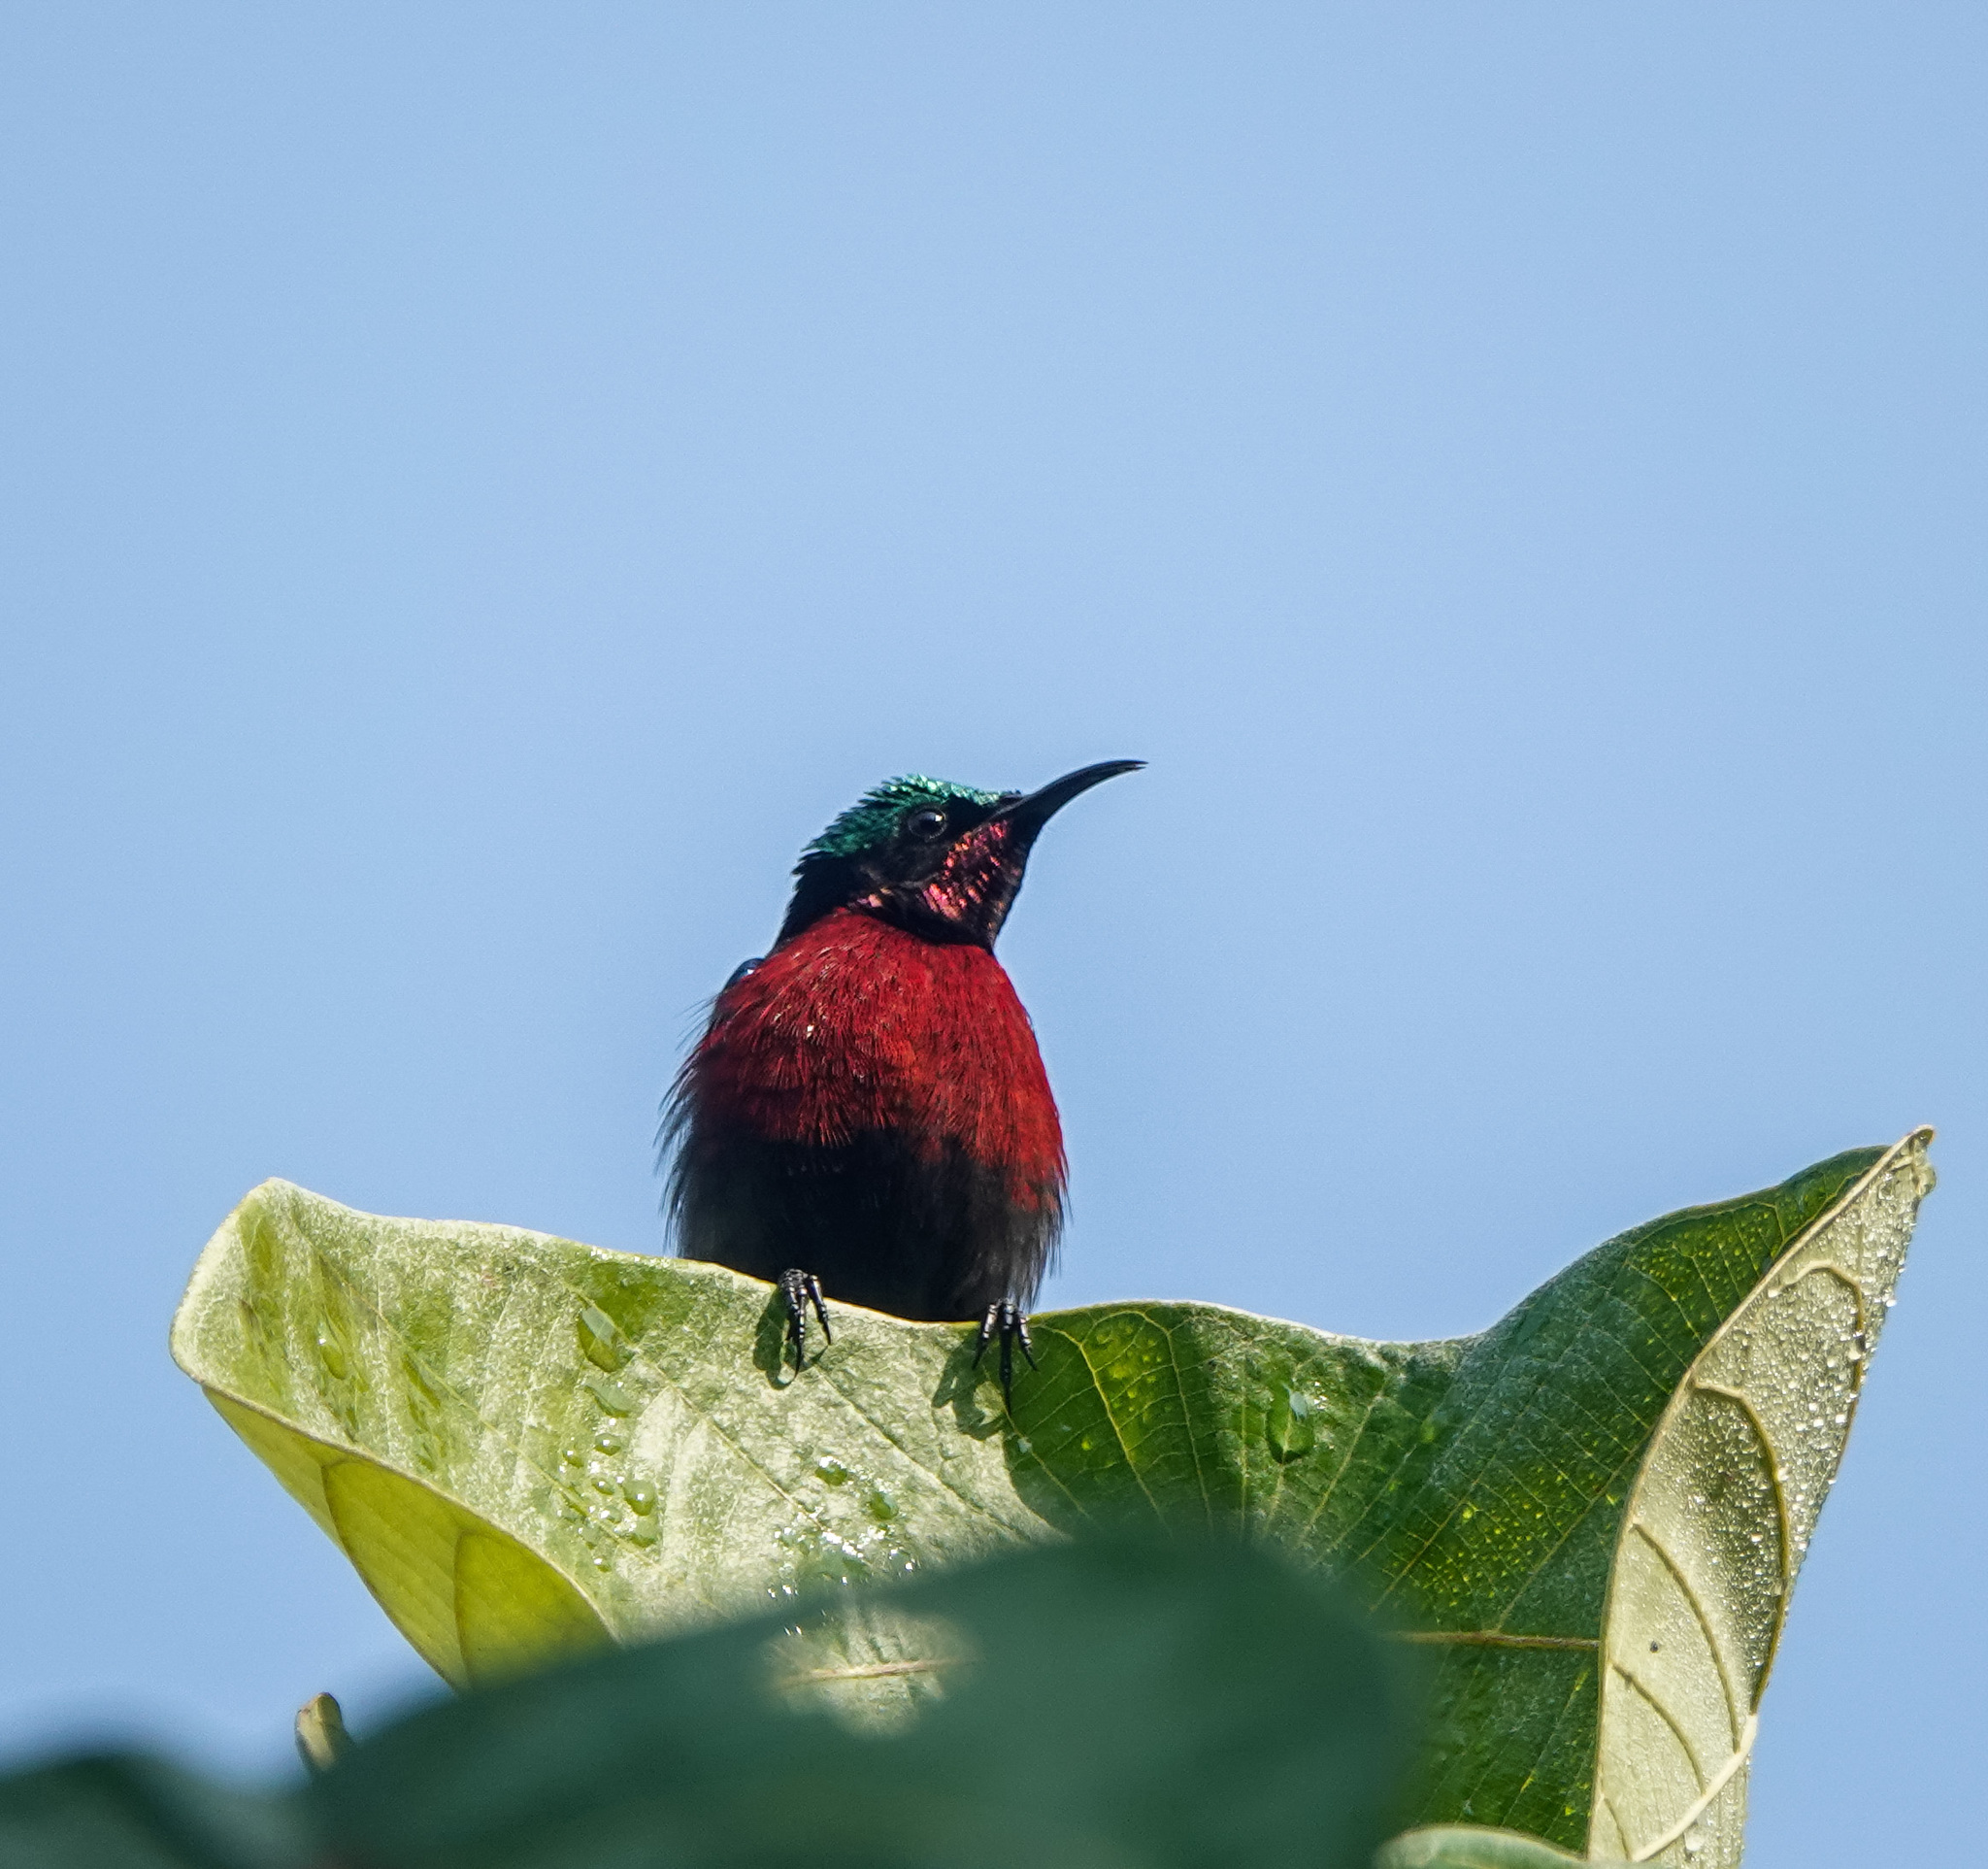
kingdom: Animalia
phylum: Chordata
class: Aves
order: Passeriformes
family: Nectariniidae
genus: Leptocoma
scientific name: Leptocoma brasiliana
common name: Van hasselt's sunbird
